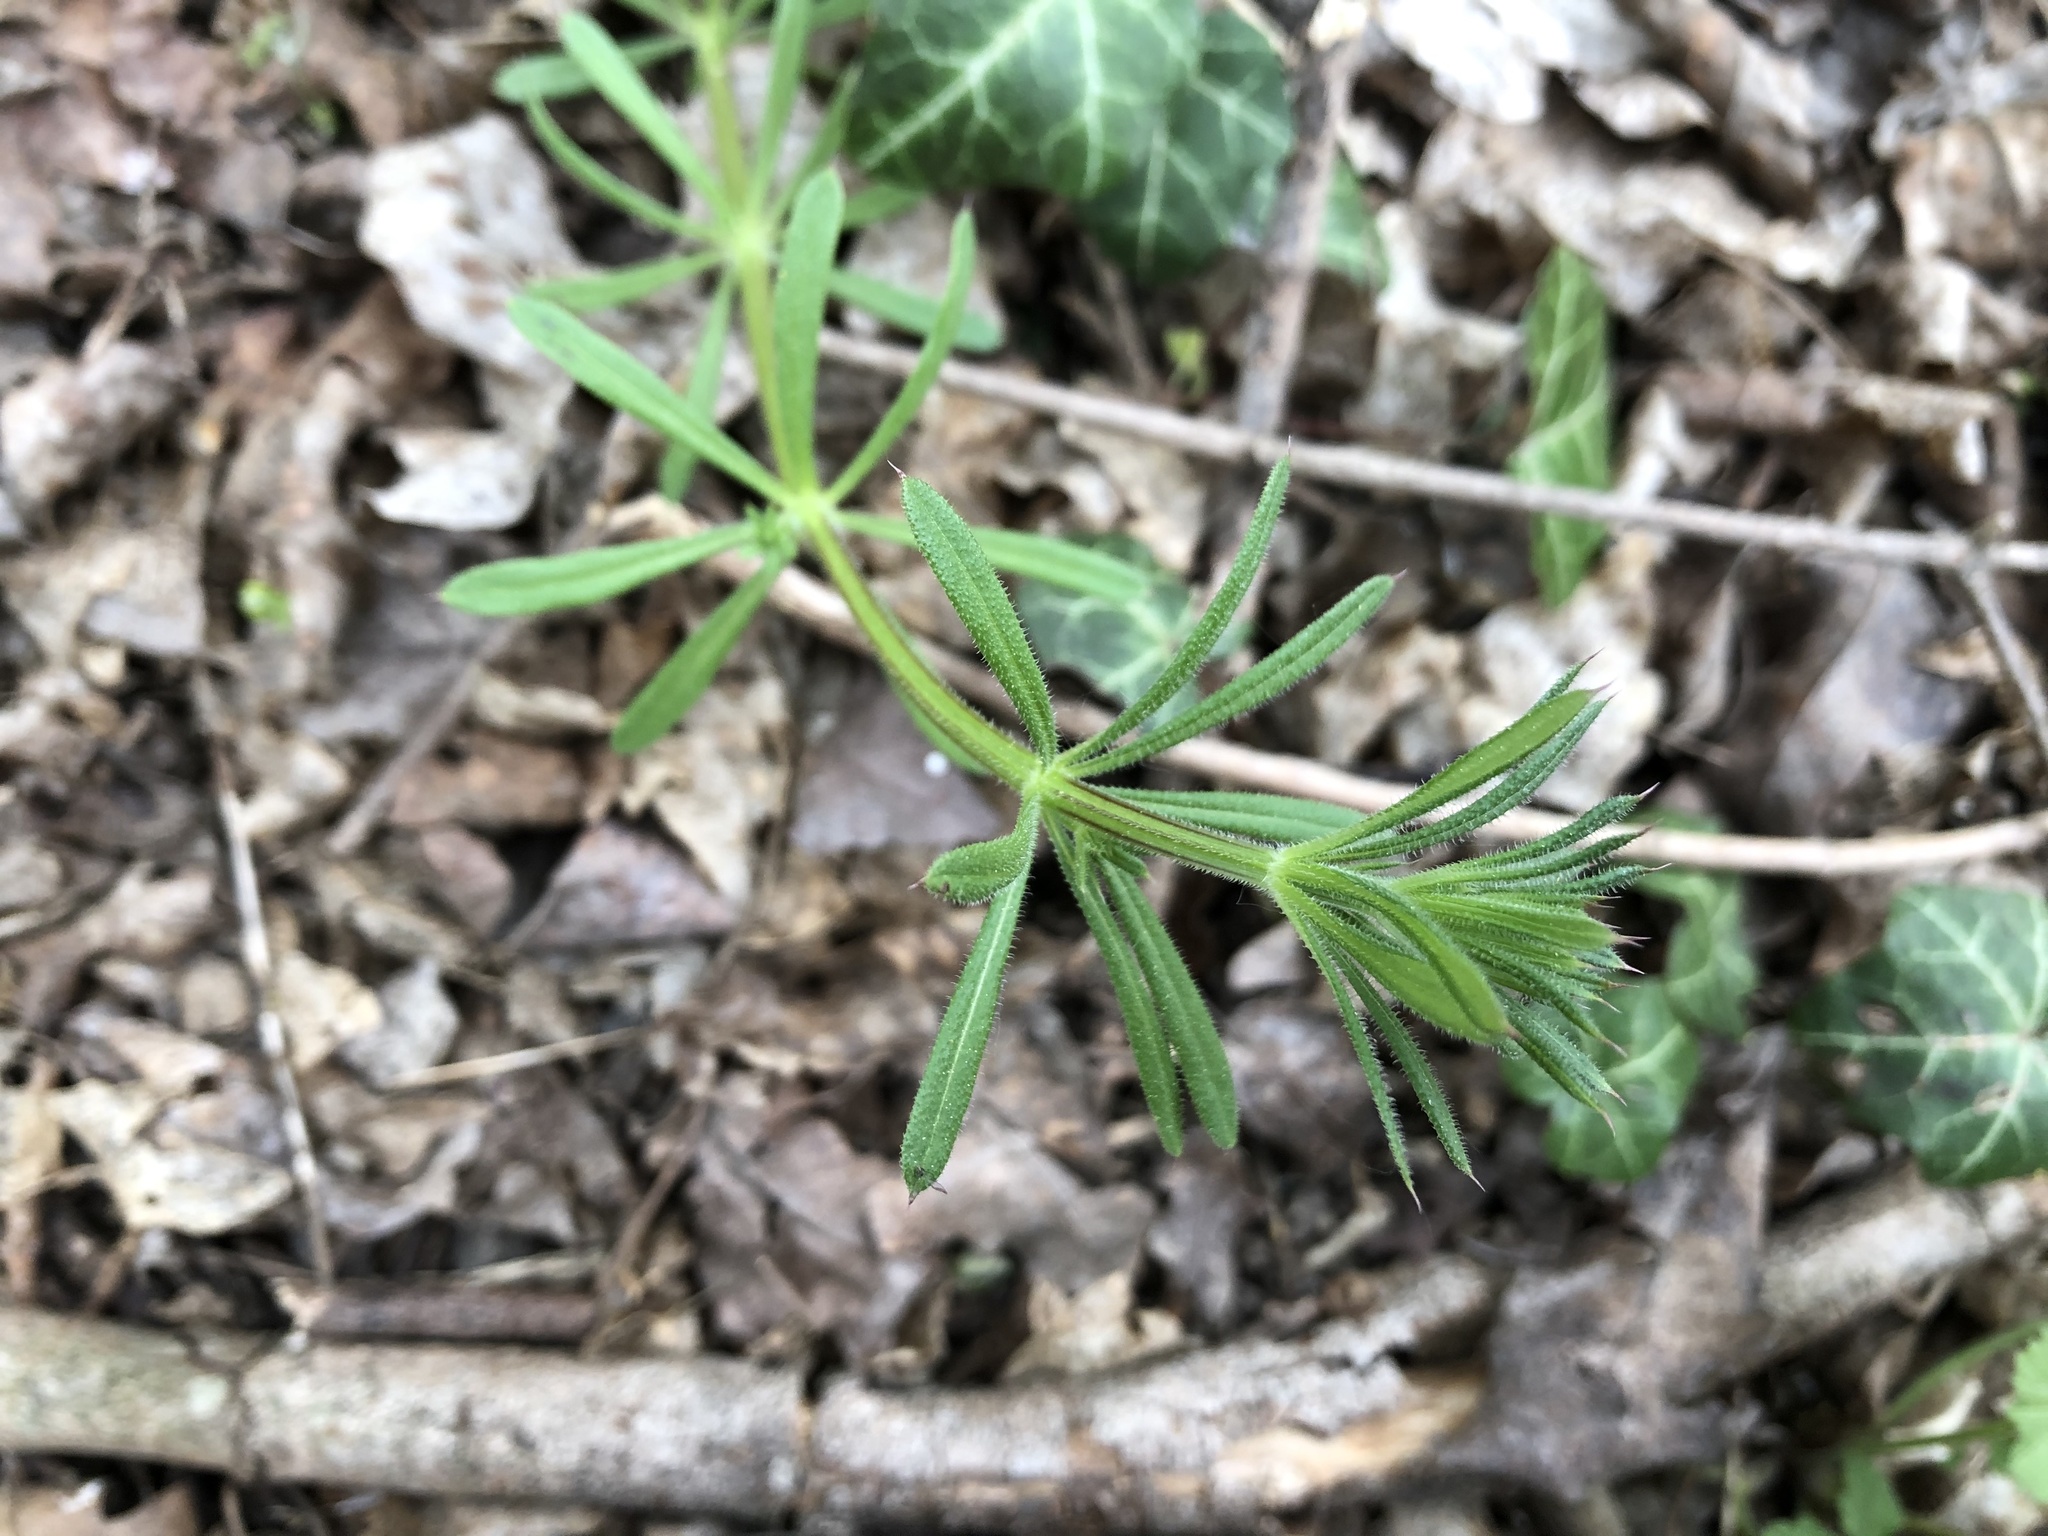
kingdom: Plantae
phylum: Tracheophyta
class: Magnoliopsida
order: Gentianales
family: Rubiaceae
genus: Galium
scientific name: Galium aparine
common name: Cleavers
